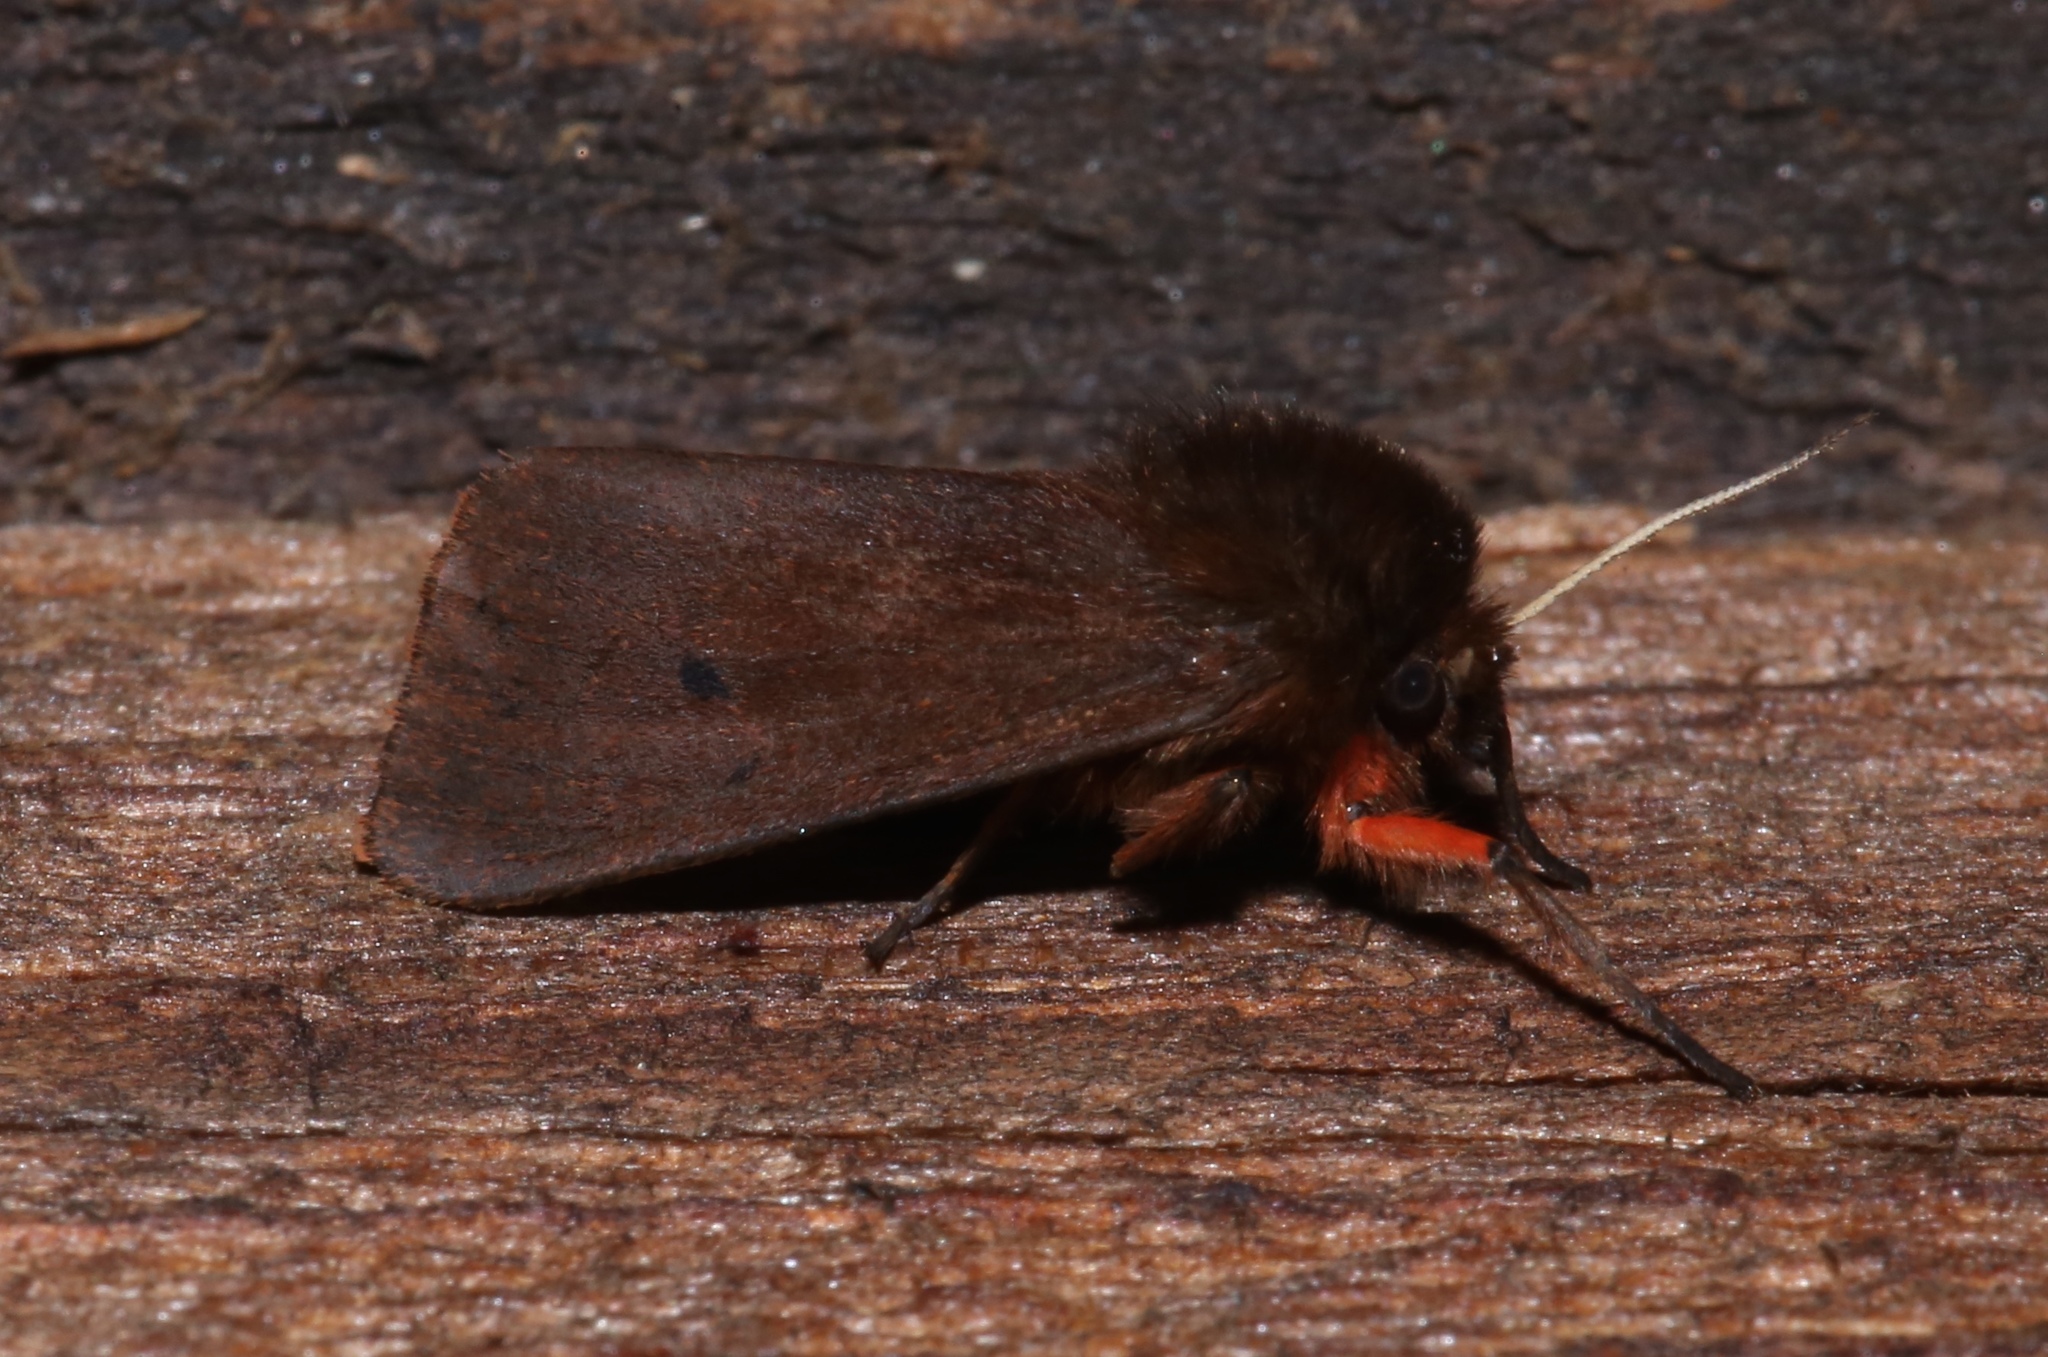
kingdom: Animalia
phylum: Arthropoda
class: Insecta
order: Lepidoptera
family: Erebidae
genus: Phragmatobia
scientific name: Phragmatobia fuliginosa
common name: Ruby tiger
